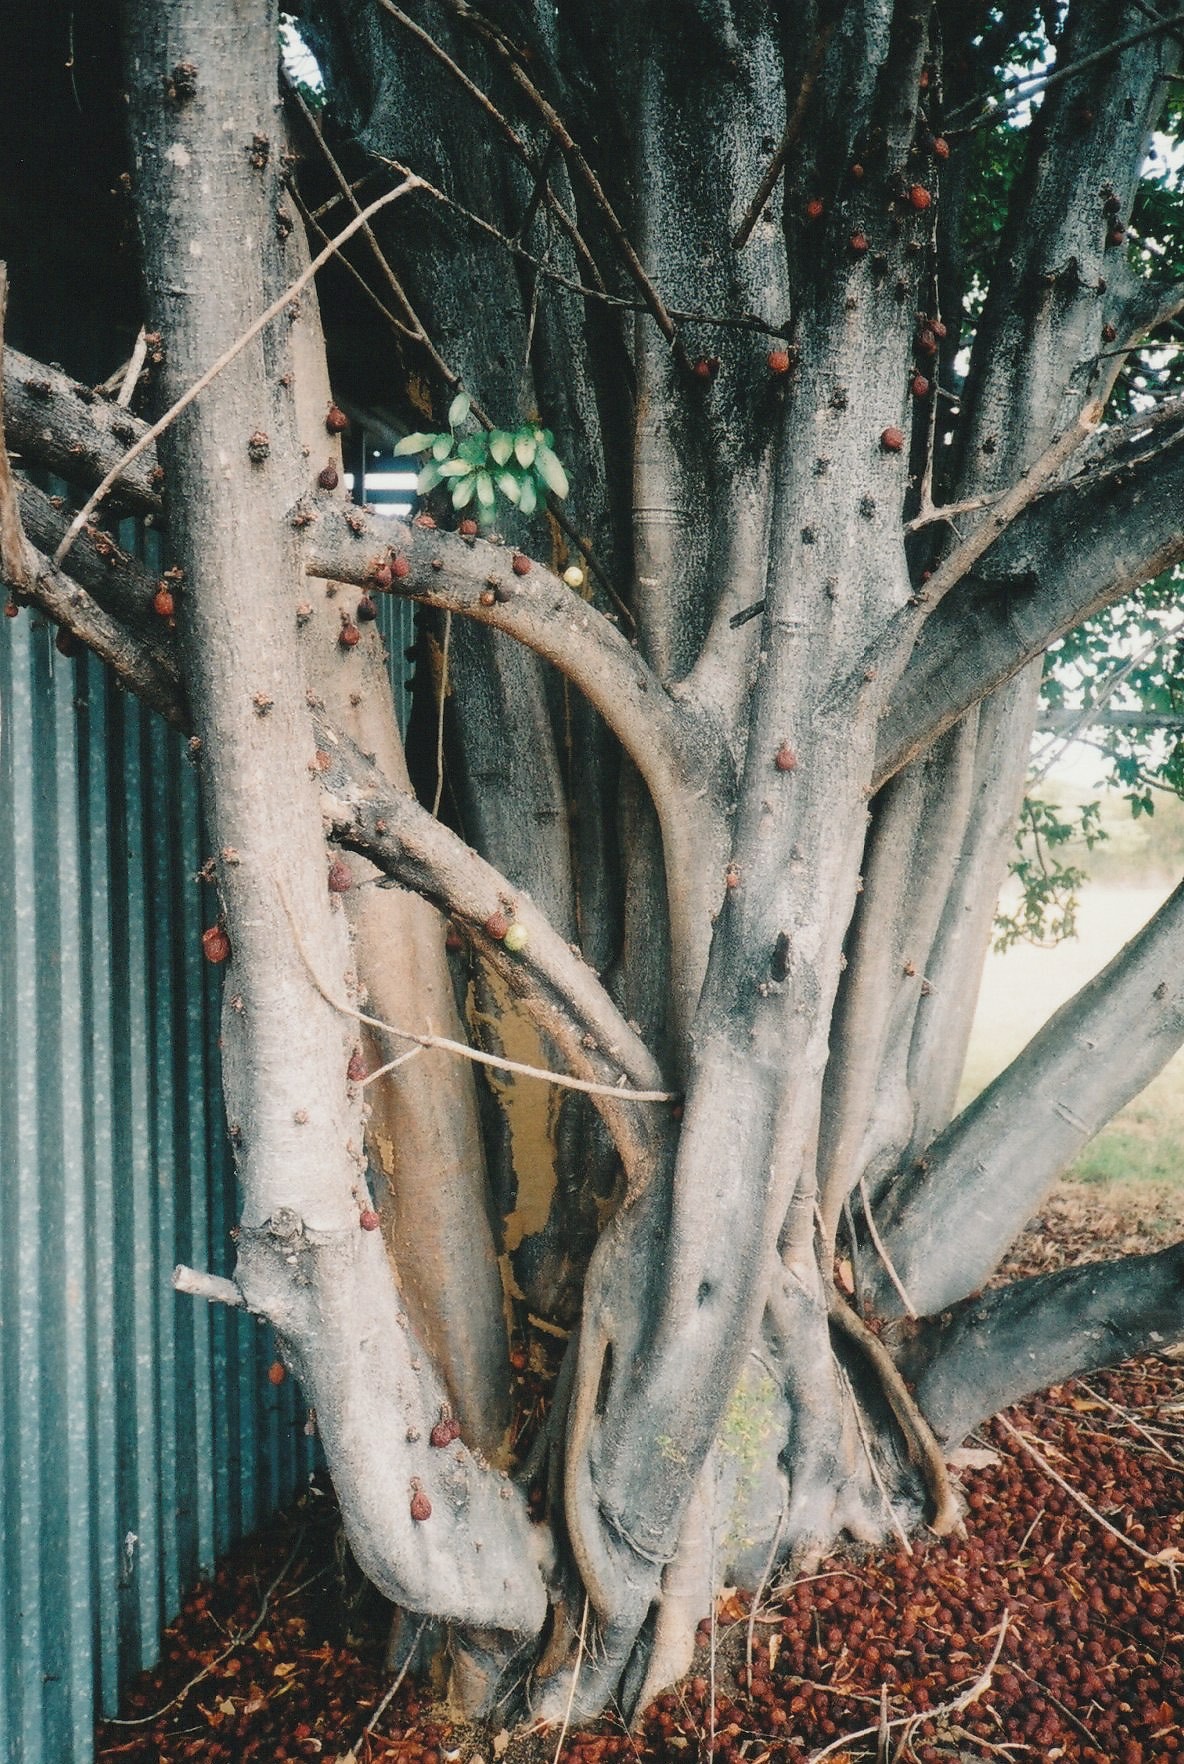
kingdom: Plantae
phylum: Tracheophyta
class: Magnoliopsida
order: Rosales
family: Moraceae
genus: Ficus
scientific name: Ficus sansibarica
